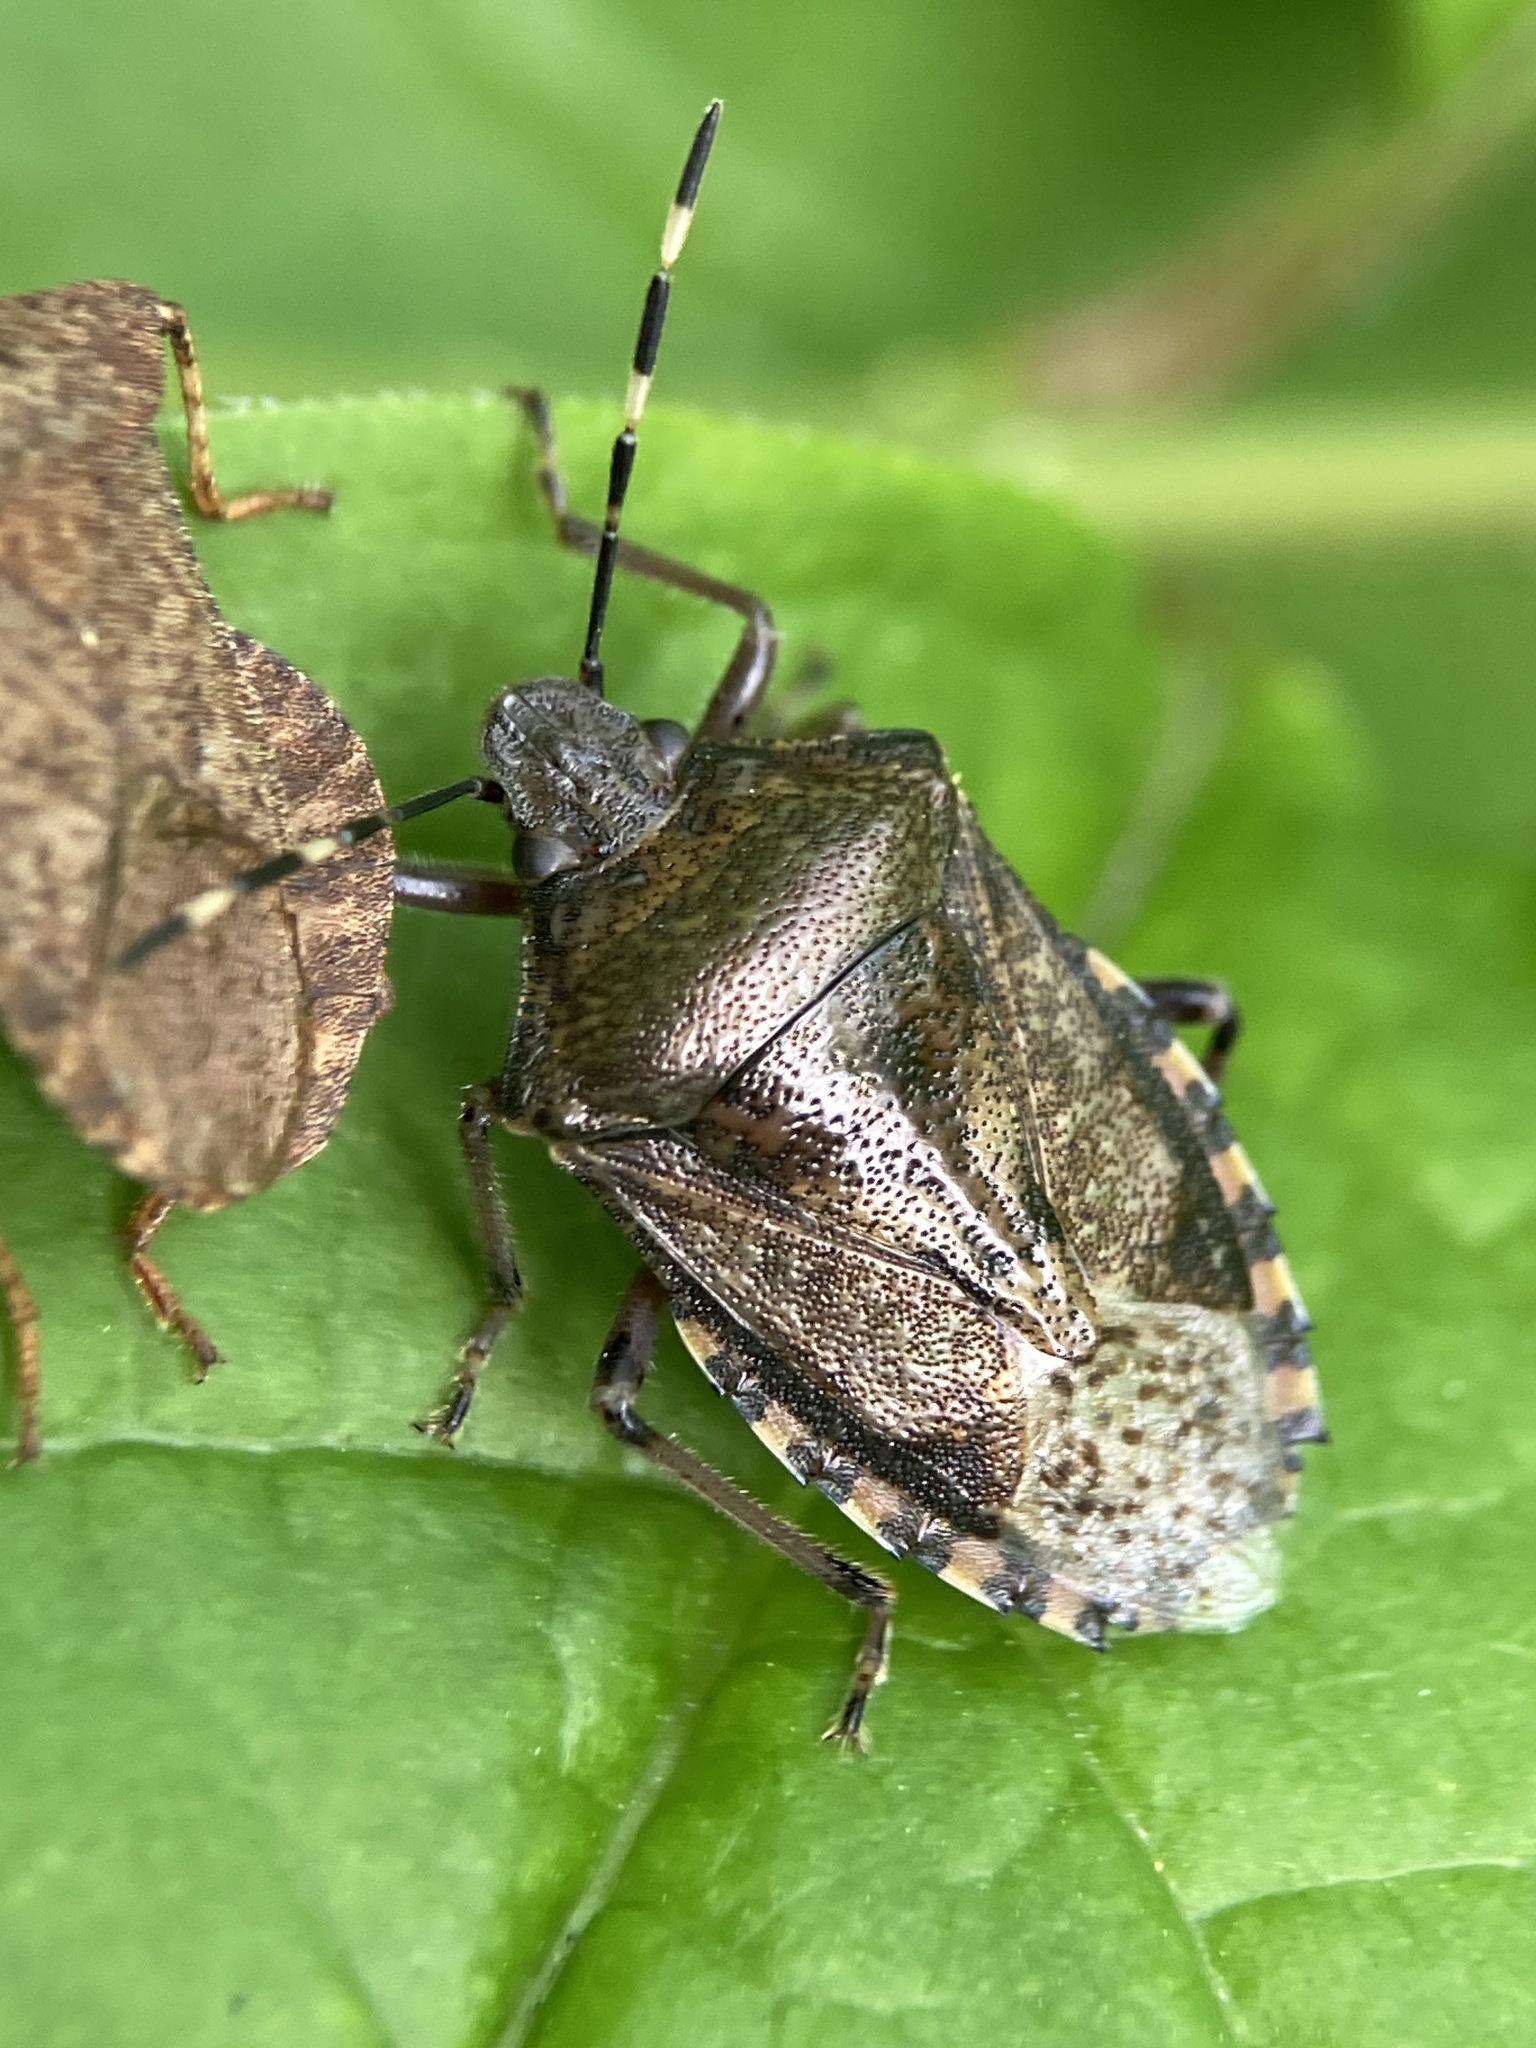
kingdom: Animalia
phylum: Arthropoda
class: Insecta
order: Hemiptera
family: Pentatomidae
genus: Rhaphigaster
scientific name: Rhaphigaster nebulosa
